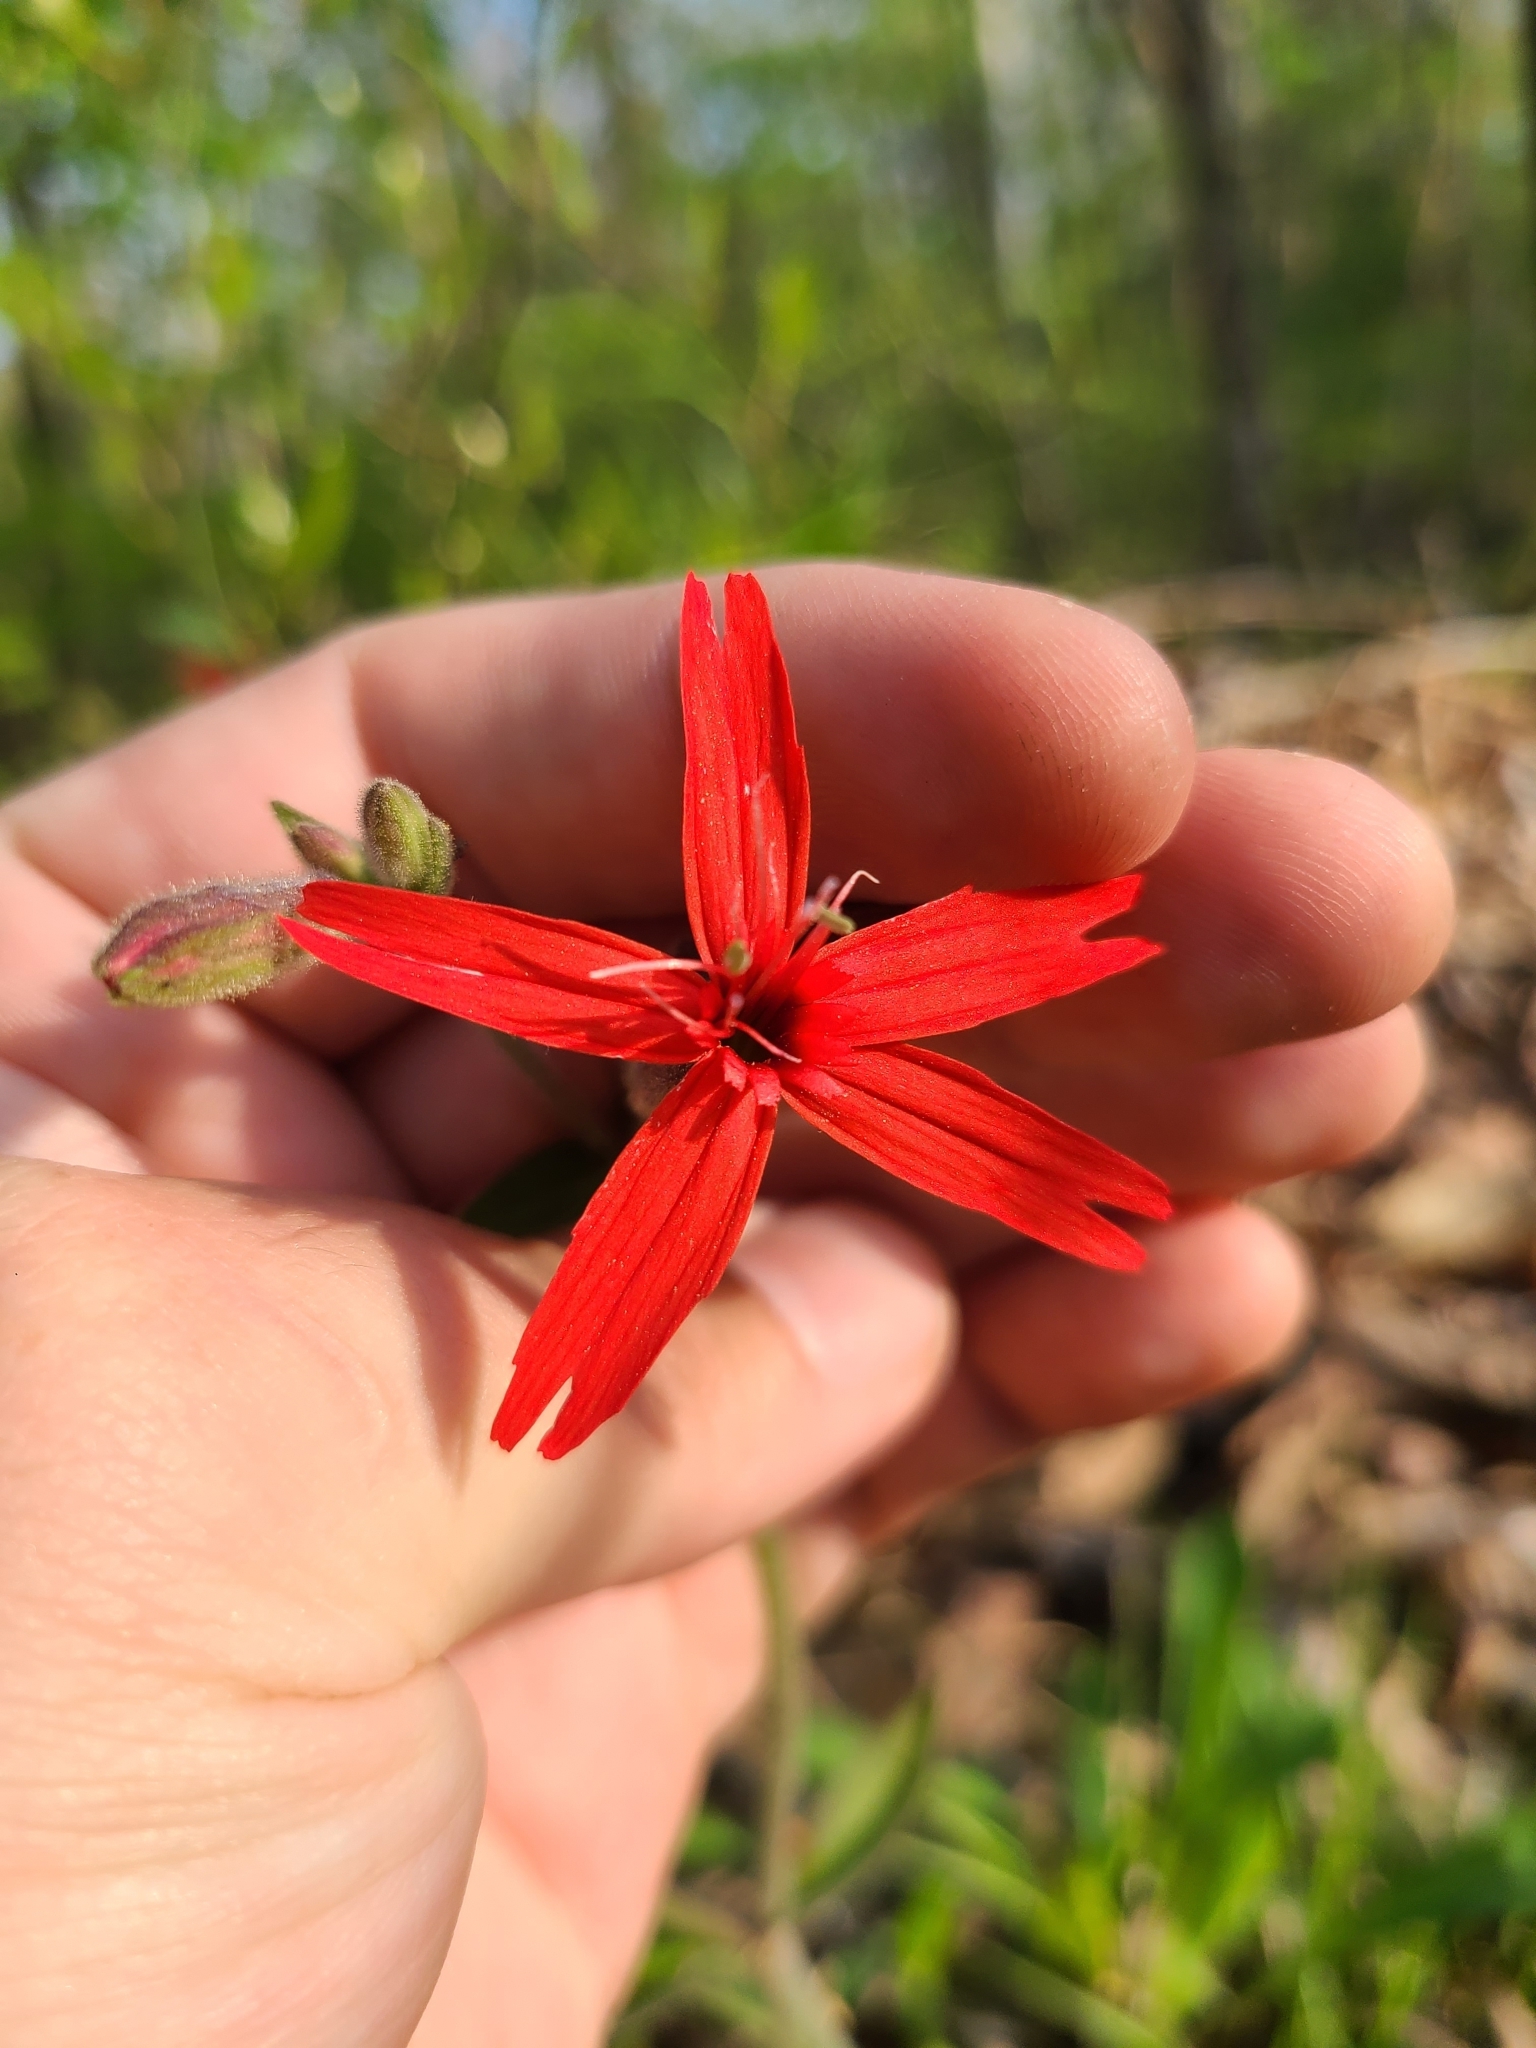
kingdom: Plantae
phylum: Tracheophyta
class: Magnoliopsida
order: Caryophyllales
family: Caryophyllaceae
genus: Silene
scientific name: Silene virginica
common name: Fire-pink
